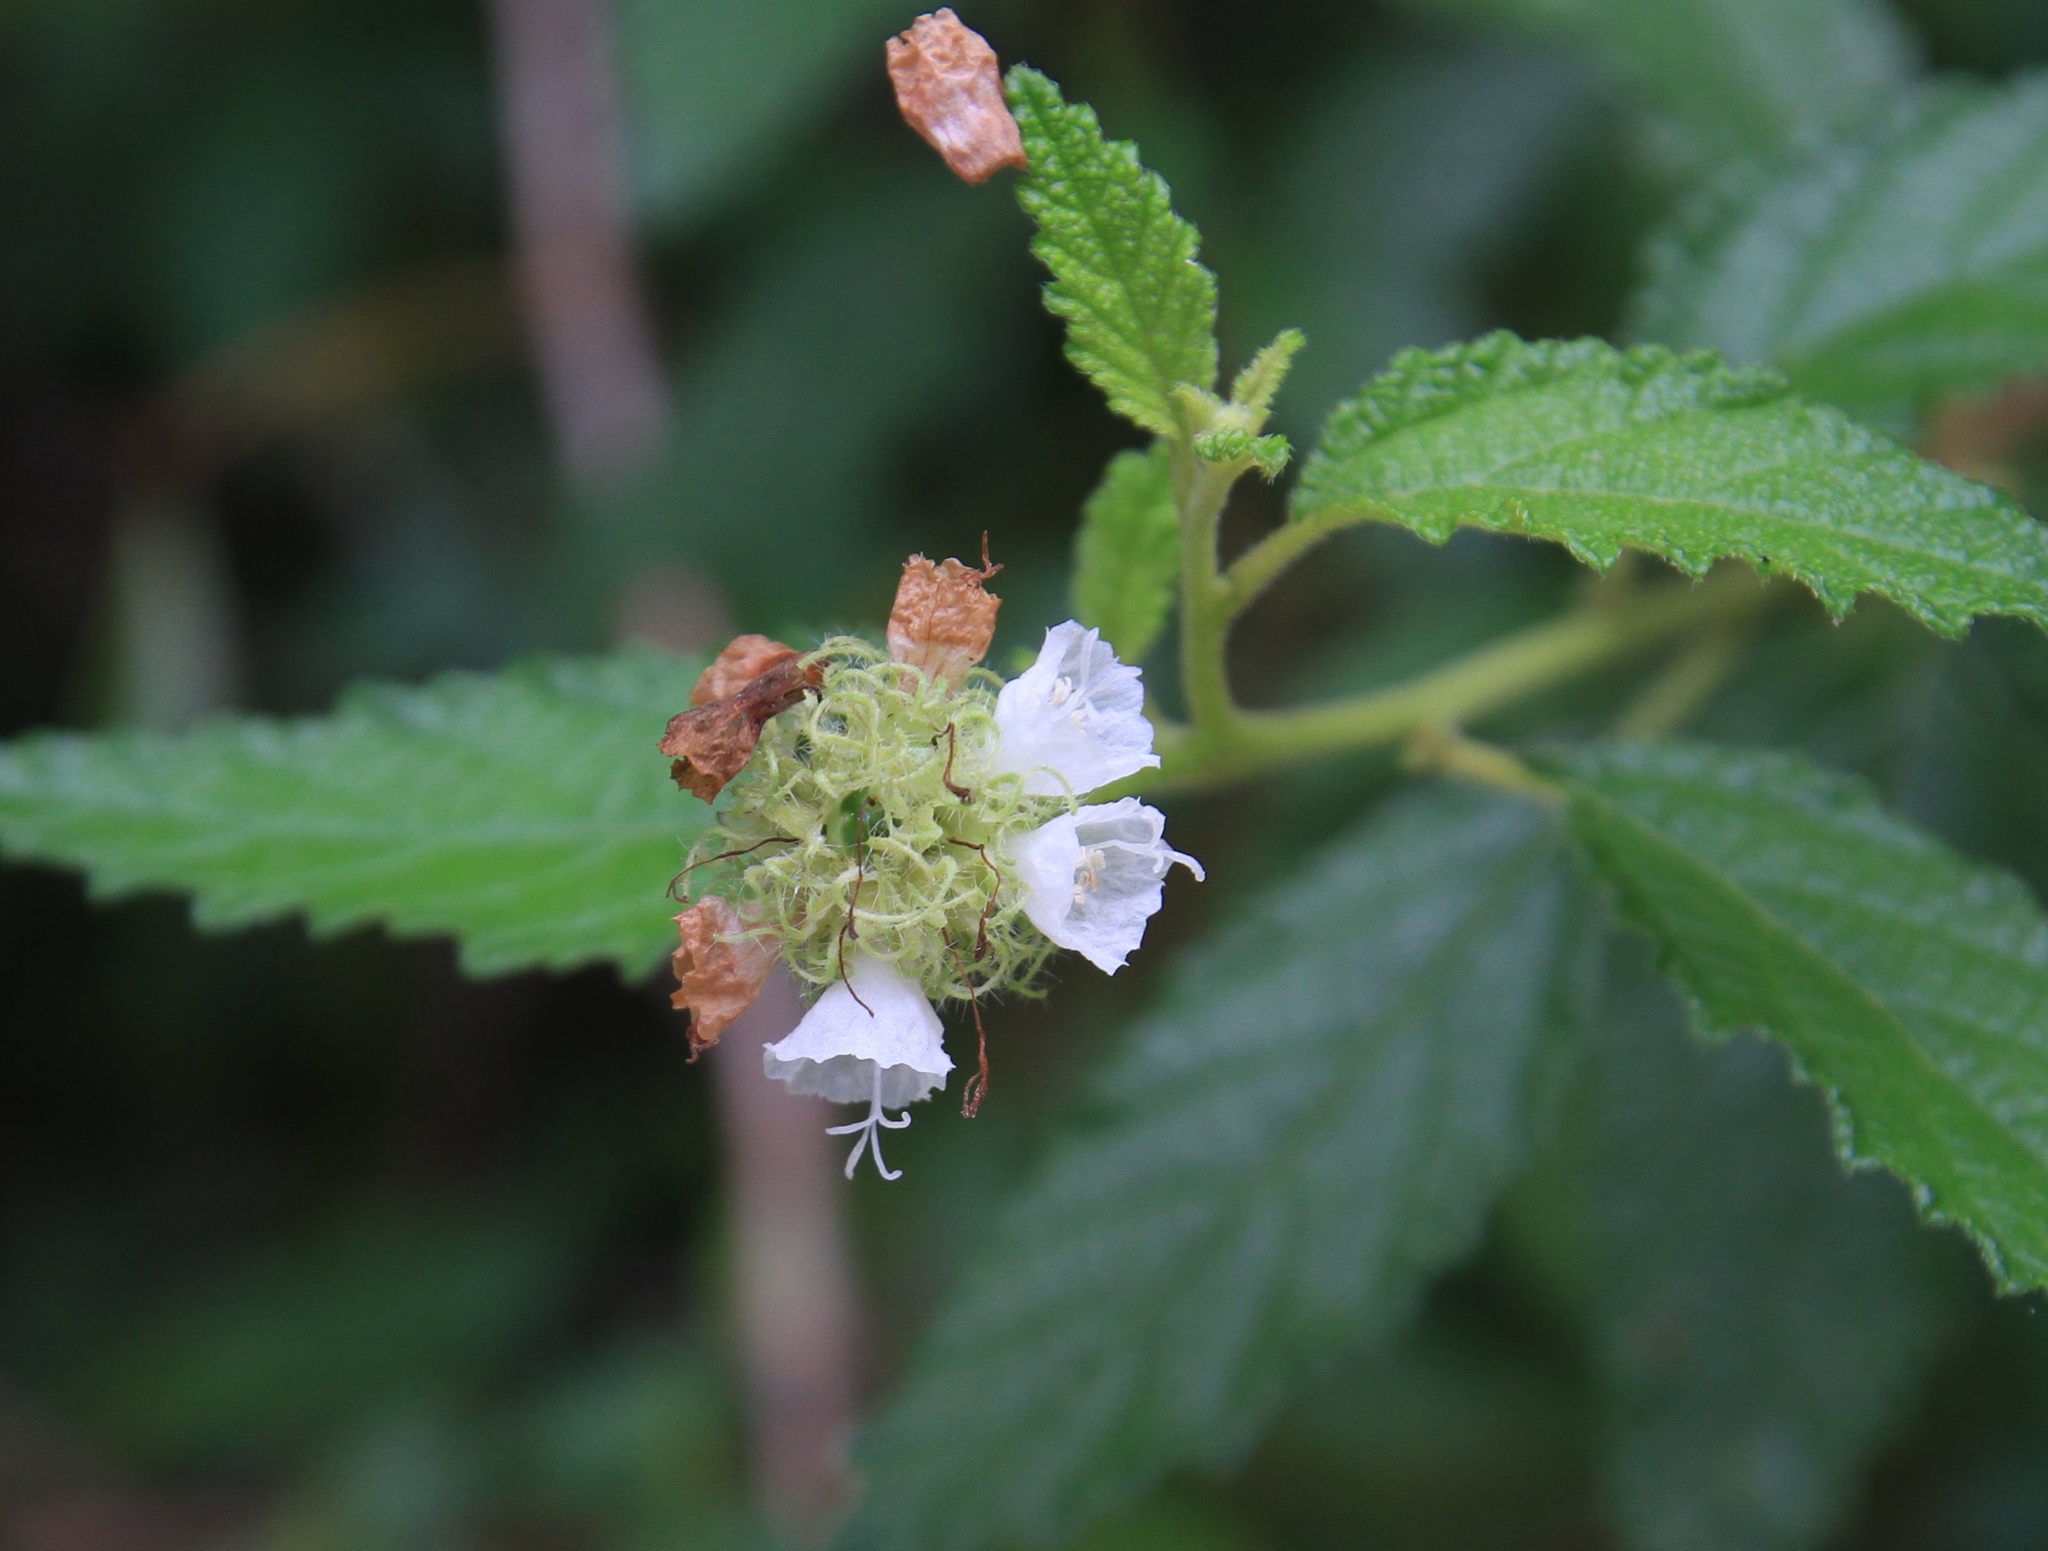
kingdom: Plantae
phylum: Tracheophyta
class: Magnoliopsida
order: Boraginales
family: Cordiaceae
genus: Varronia
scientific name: Varronia bullata
